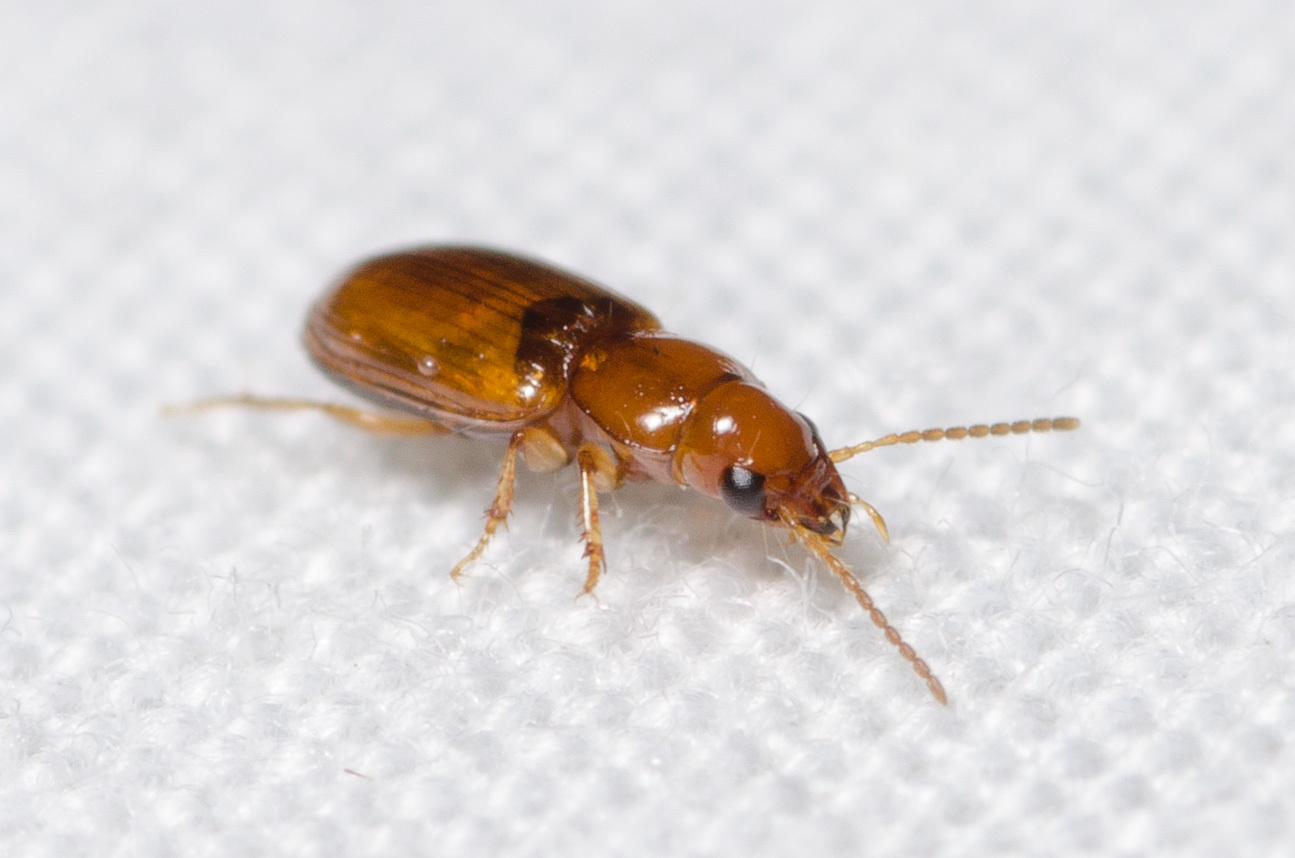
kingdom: Animalia
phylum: Arthropoda
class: Insecta
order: Coleoptera
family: Carabidae
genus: Acupalpus
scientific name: Acupalpus testaceus
